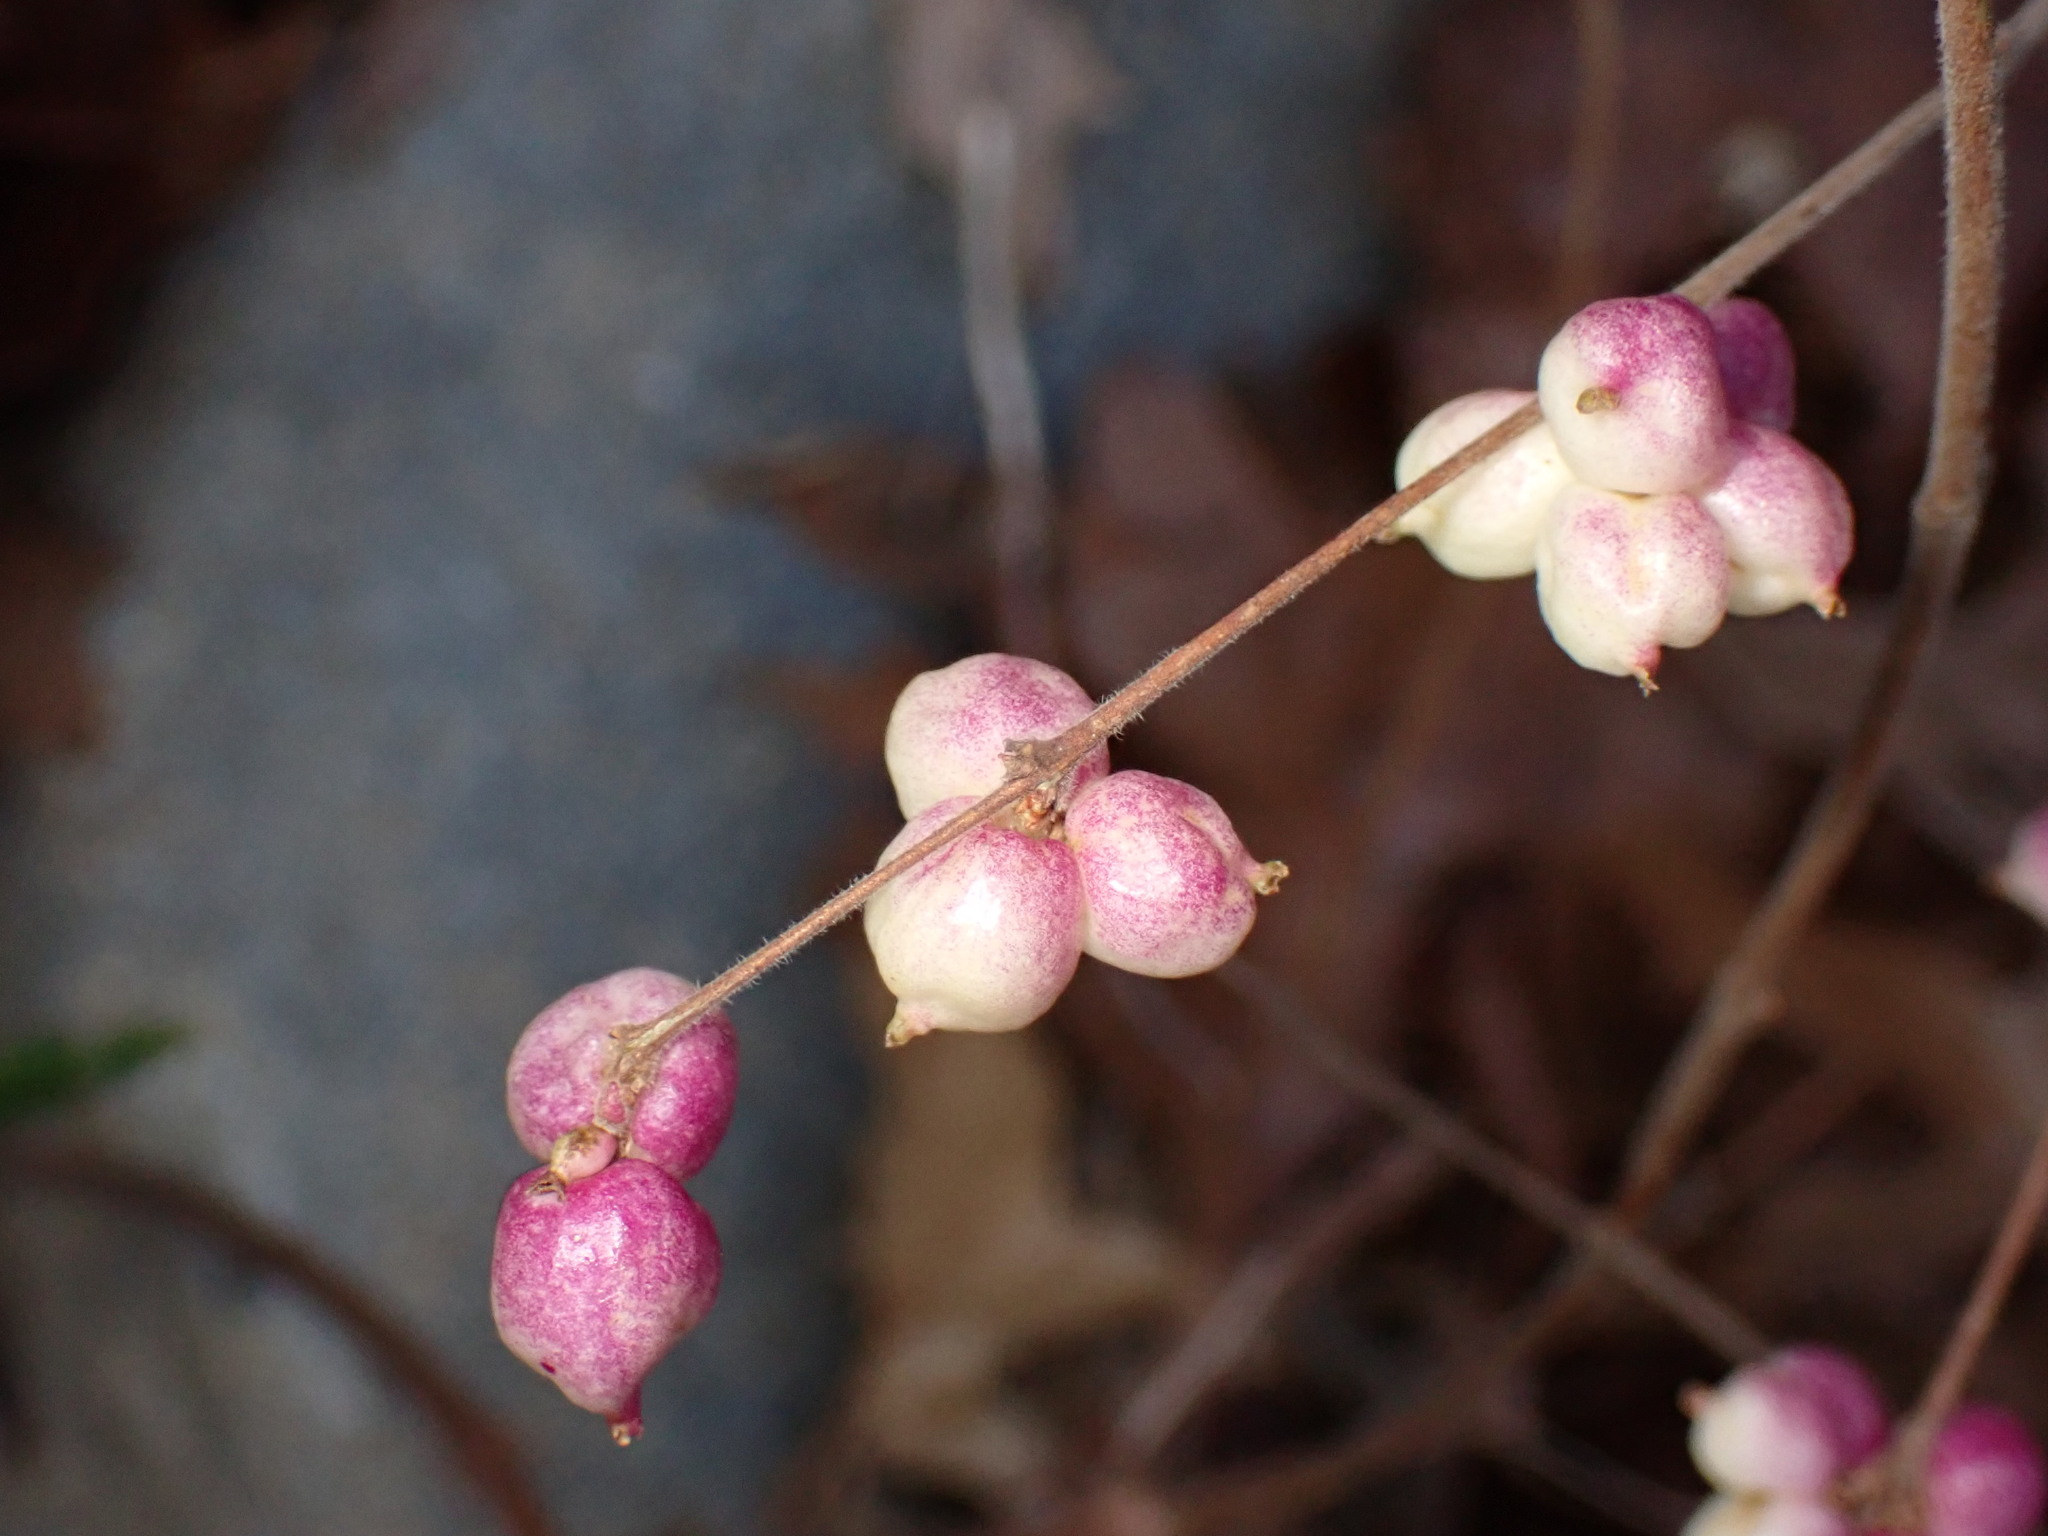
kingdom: Plantae
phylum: Tracheophyta
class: Magnoliopsida
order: Dipsacales
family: Caprifoliaceae
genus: Symphoricarpos
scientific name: Symphoricarpos orbiculatus
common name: Coralberry
